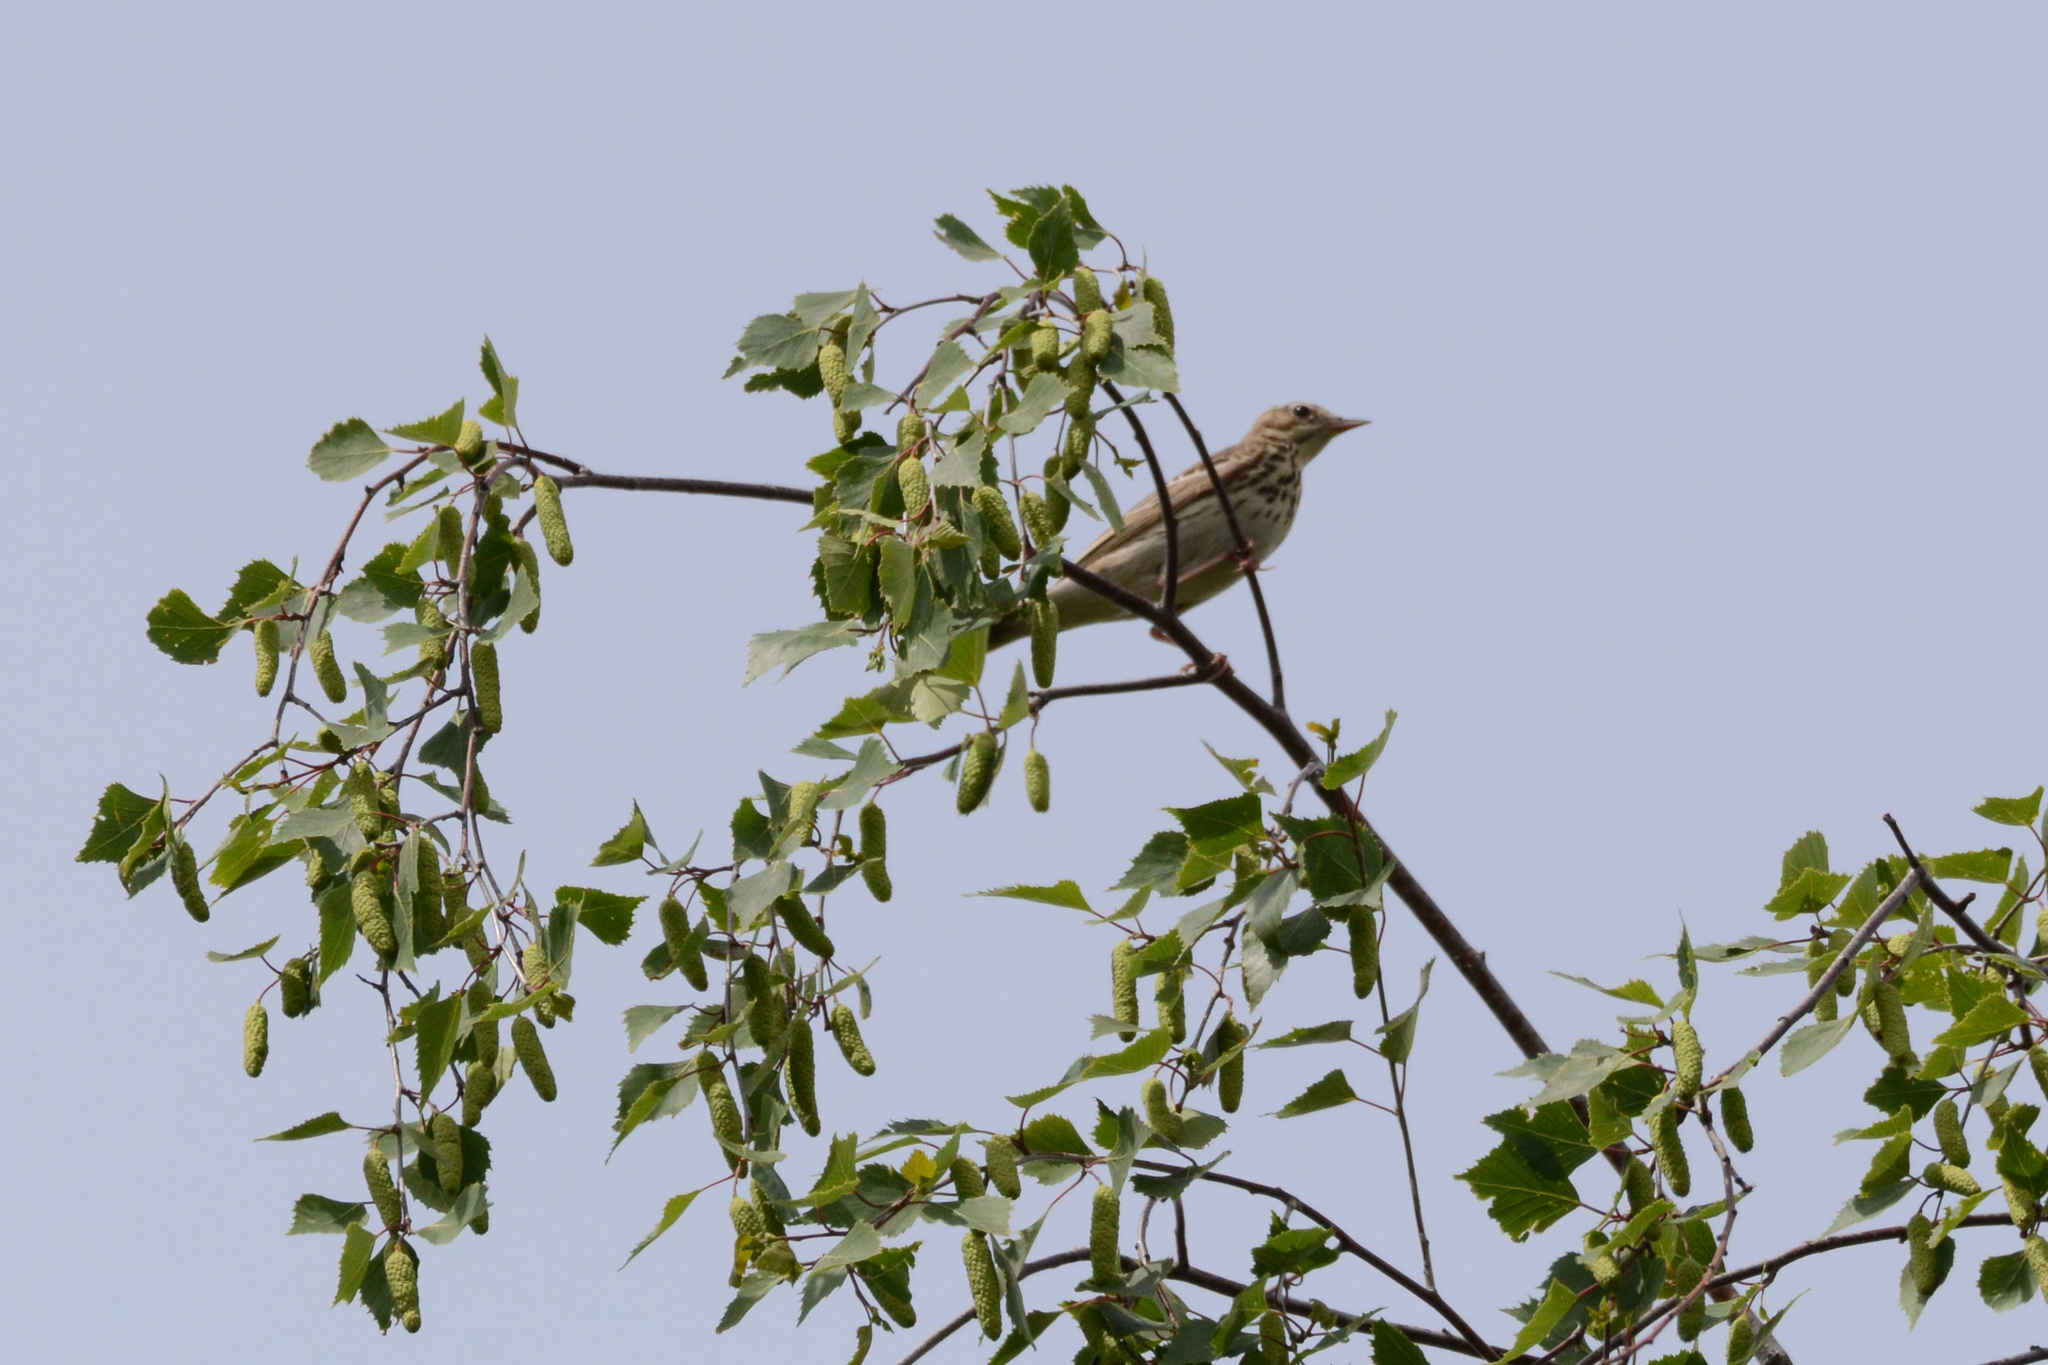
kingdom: Animalia
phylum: Chordata
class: Aves
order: Passeriformes
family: Motacillidae
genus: Anthus
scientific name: Anthus trivialis
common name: Tree pipit
